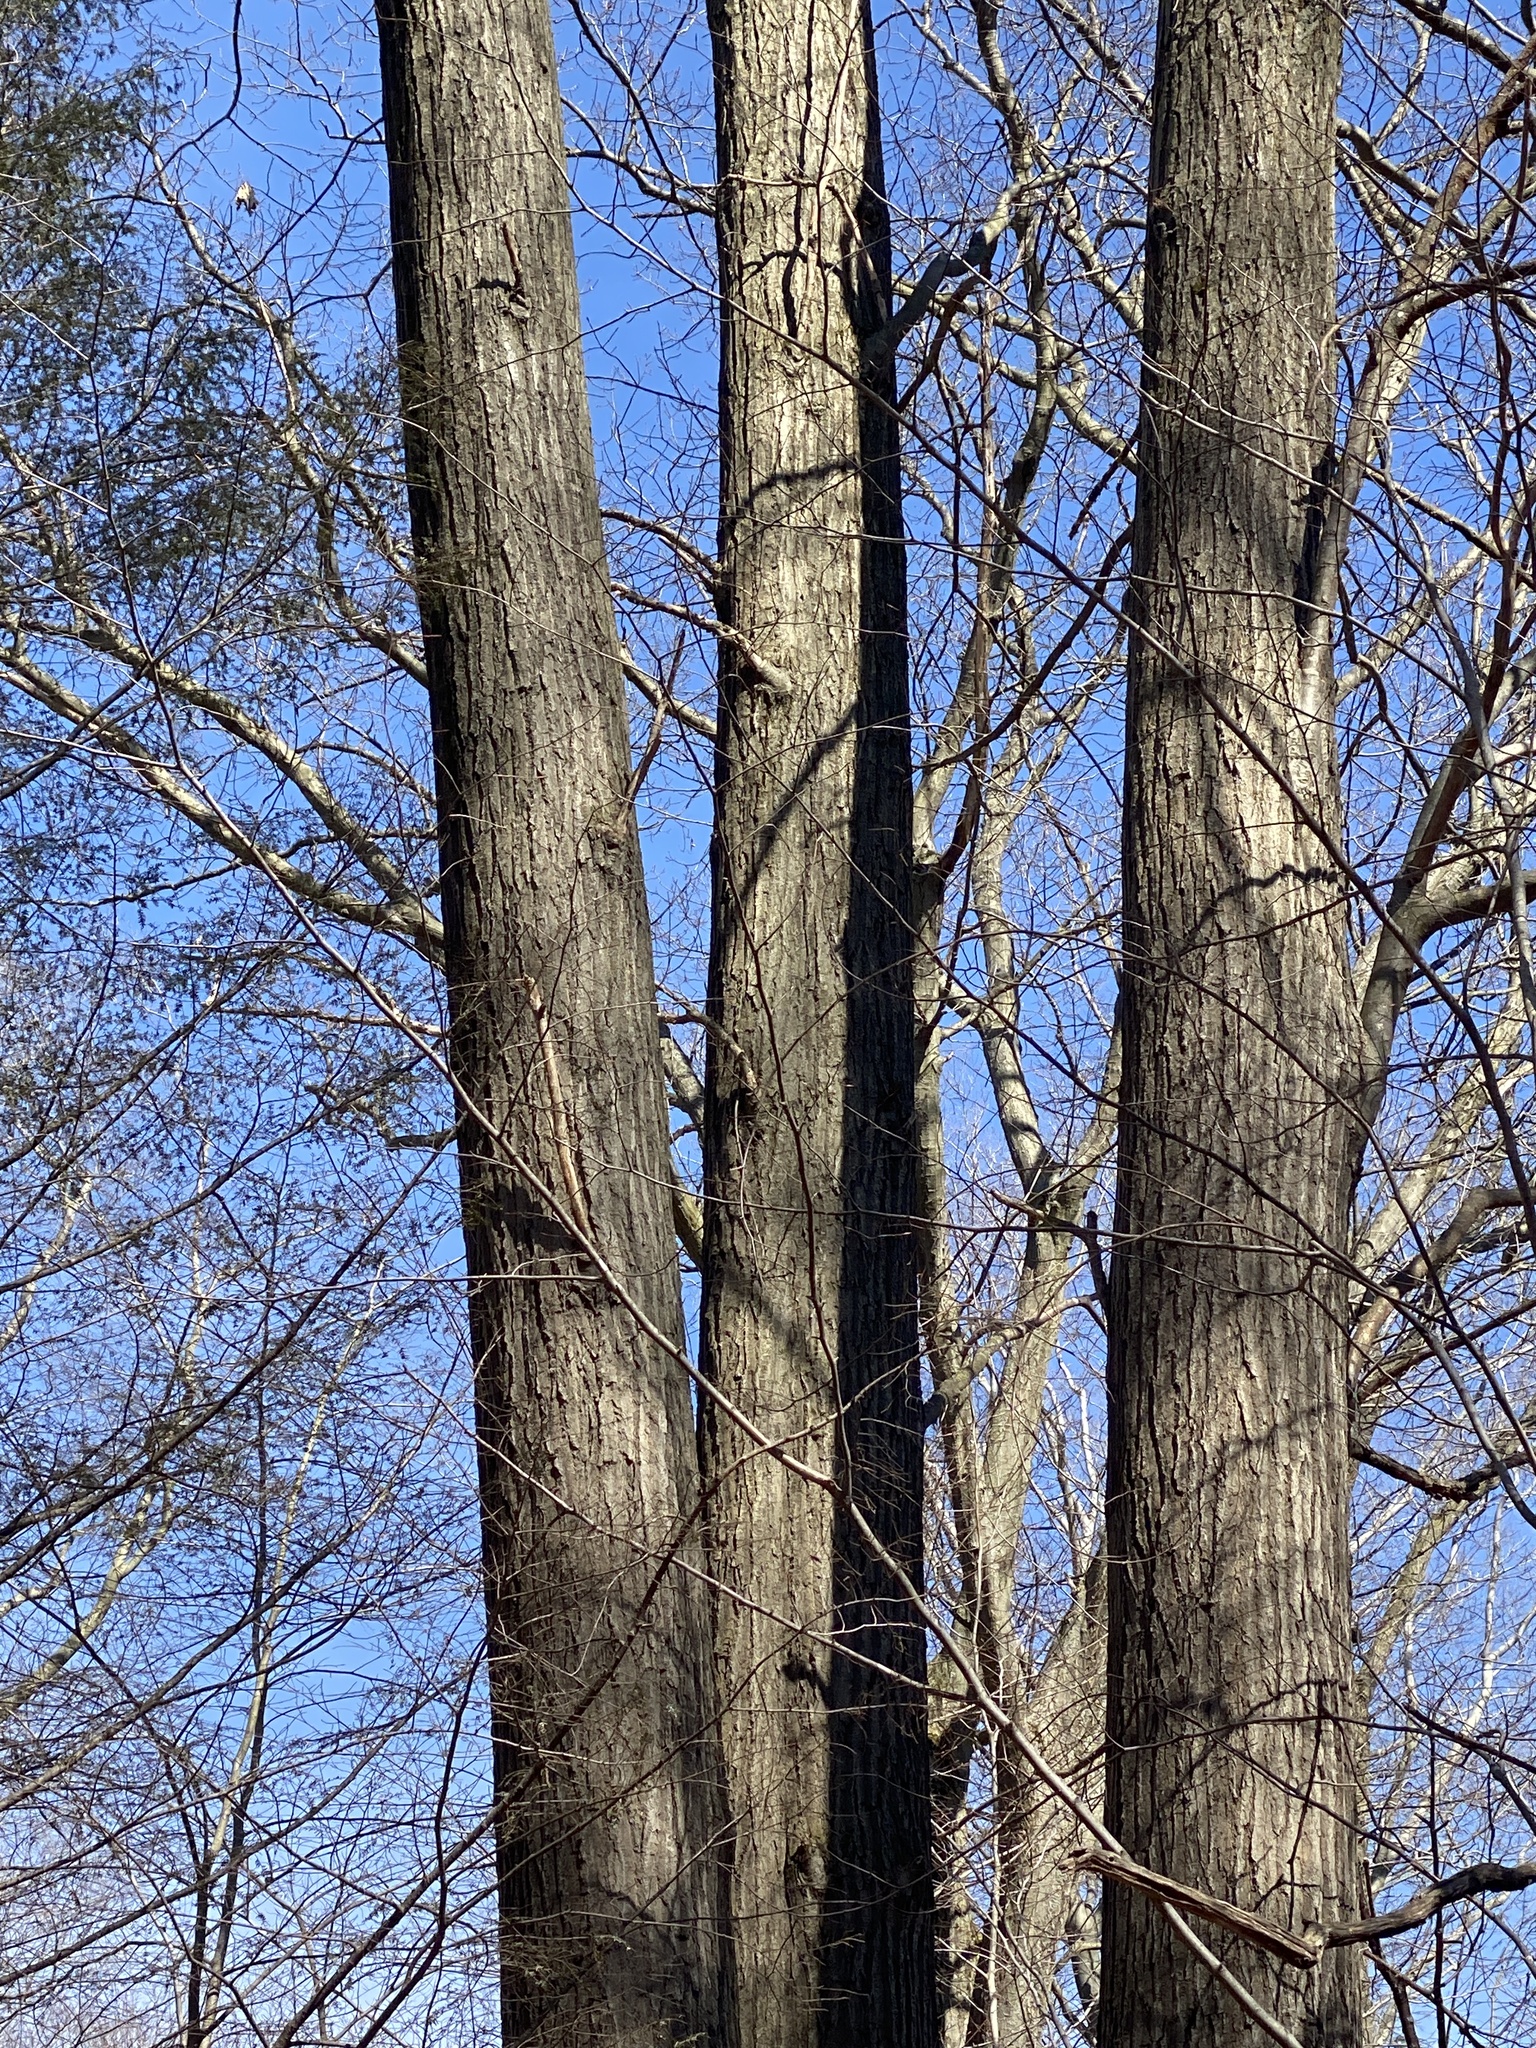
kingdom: Plantae
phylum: Tracheophyta
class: Magnoliopsida
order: Fagales
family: Fagaceae
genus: Quercus
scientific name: Quercus rubra
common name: Red oak
